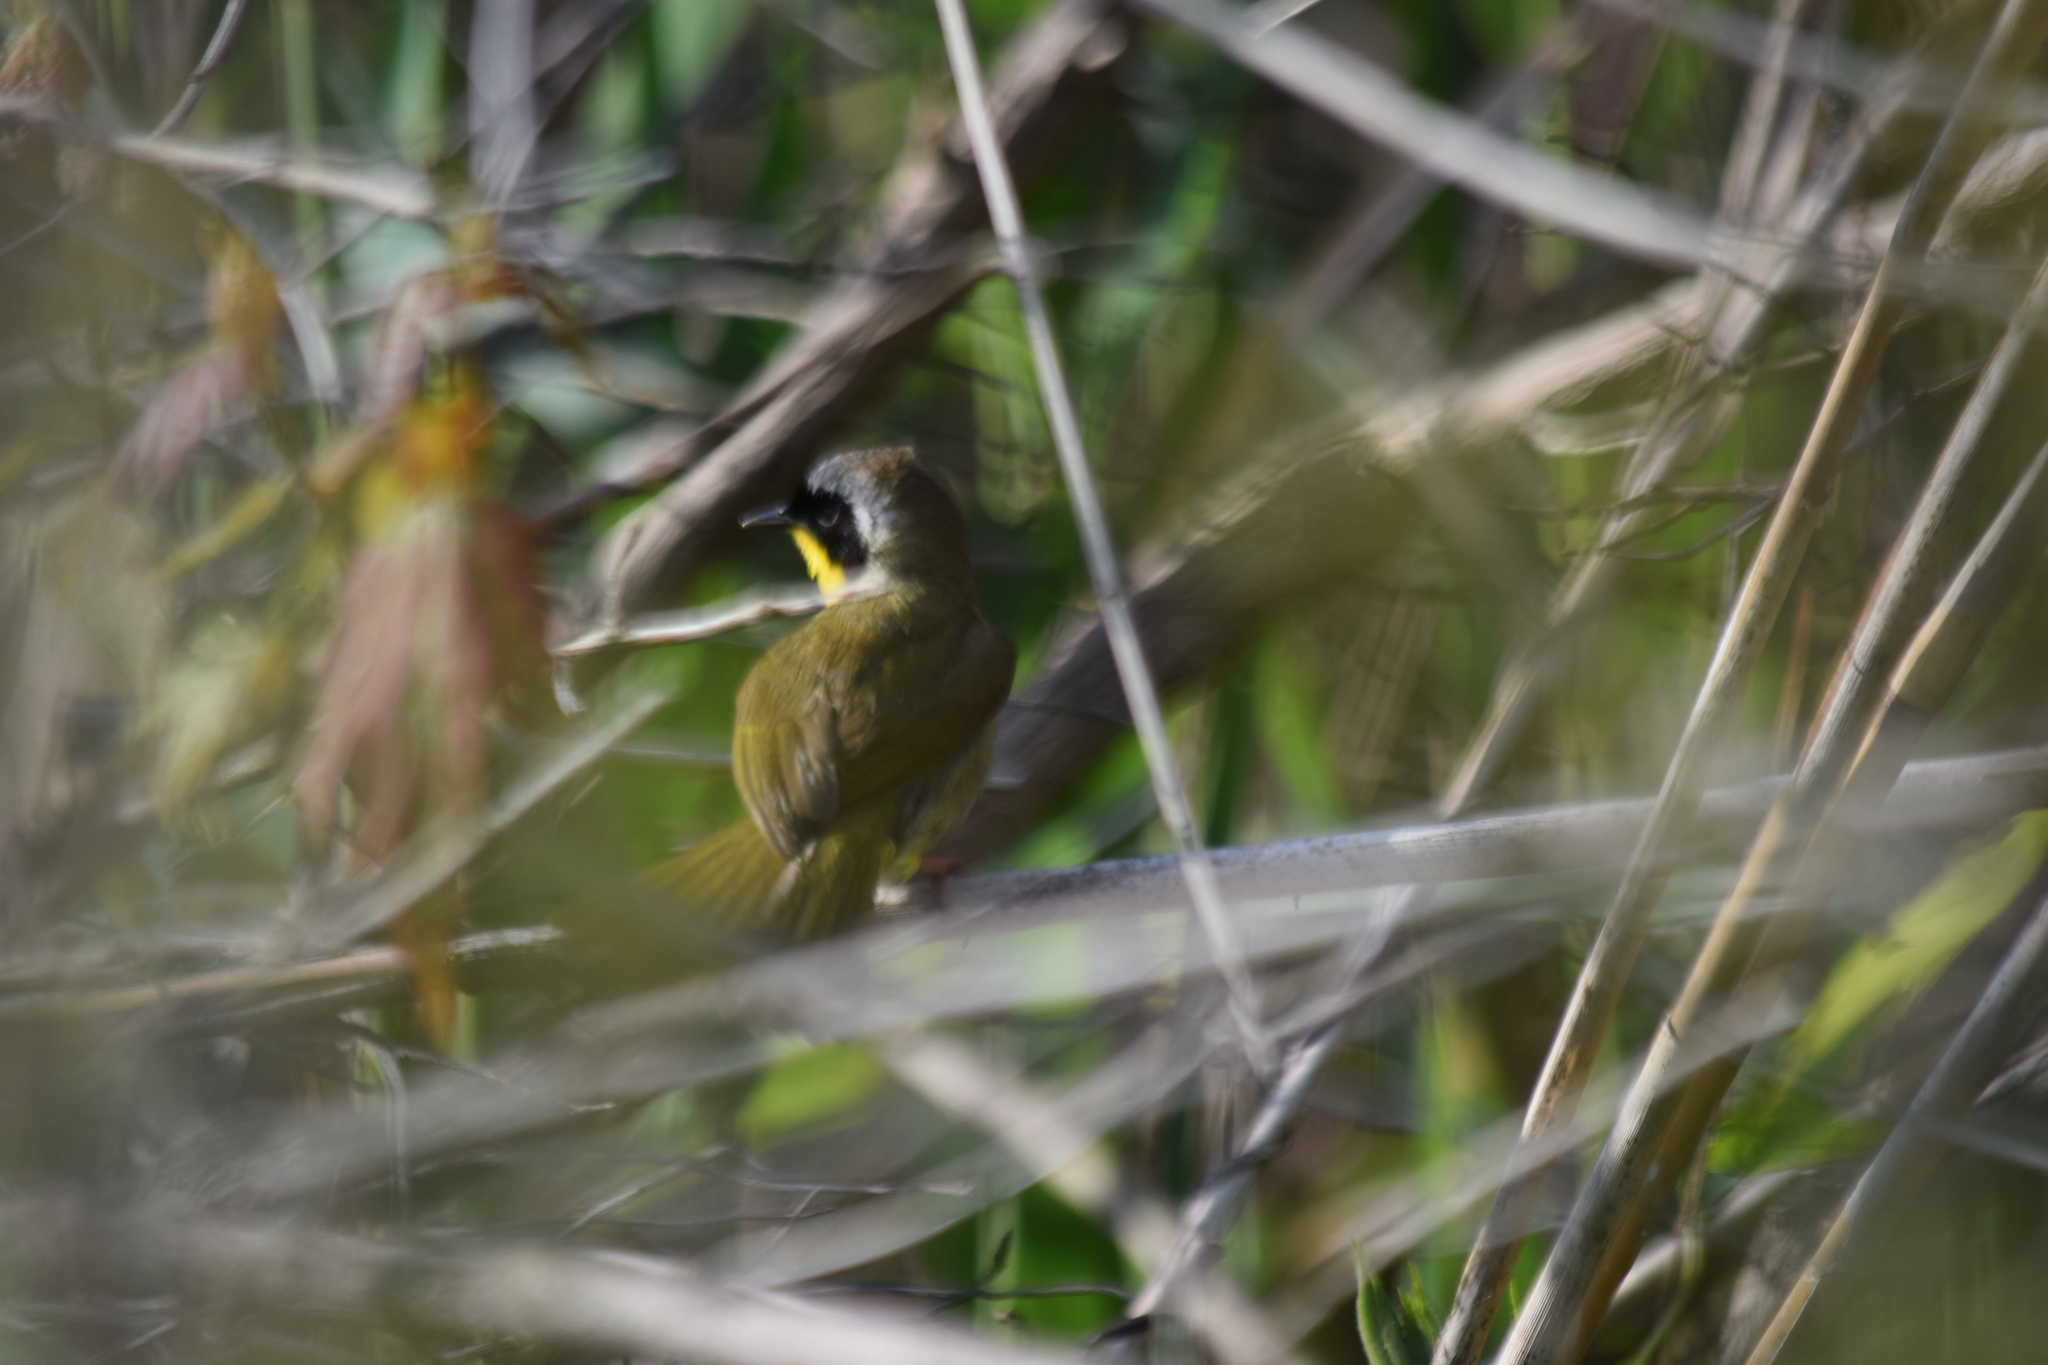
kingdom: Animalia
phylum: Chordata
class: Aves
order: Passeriformes
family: Parulidae
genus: Geothlypis
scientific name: Geothlypis trichas
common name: Common yellowthroat
